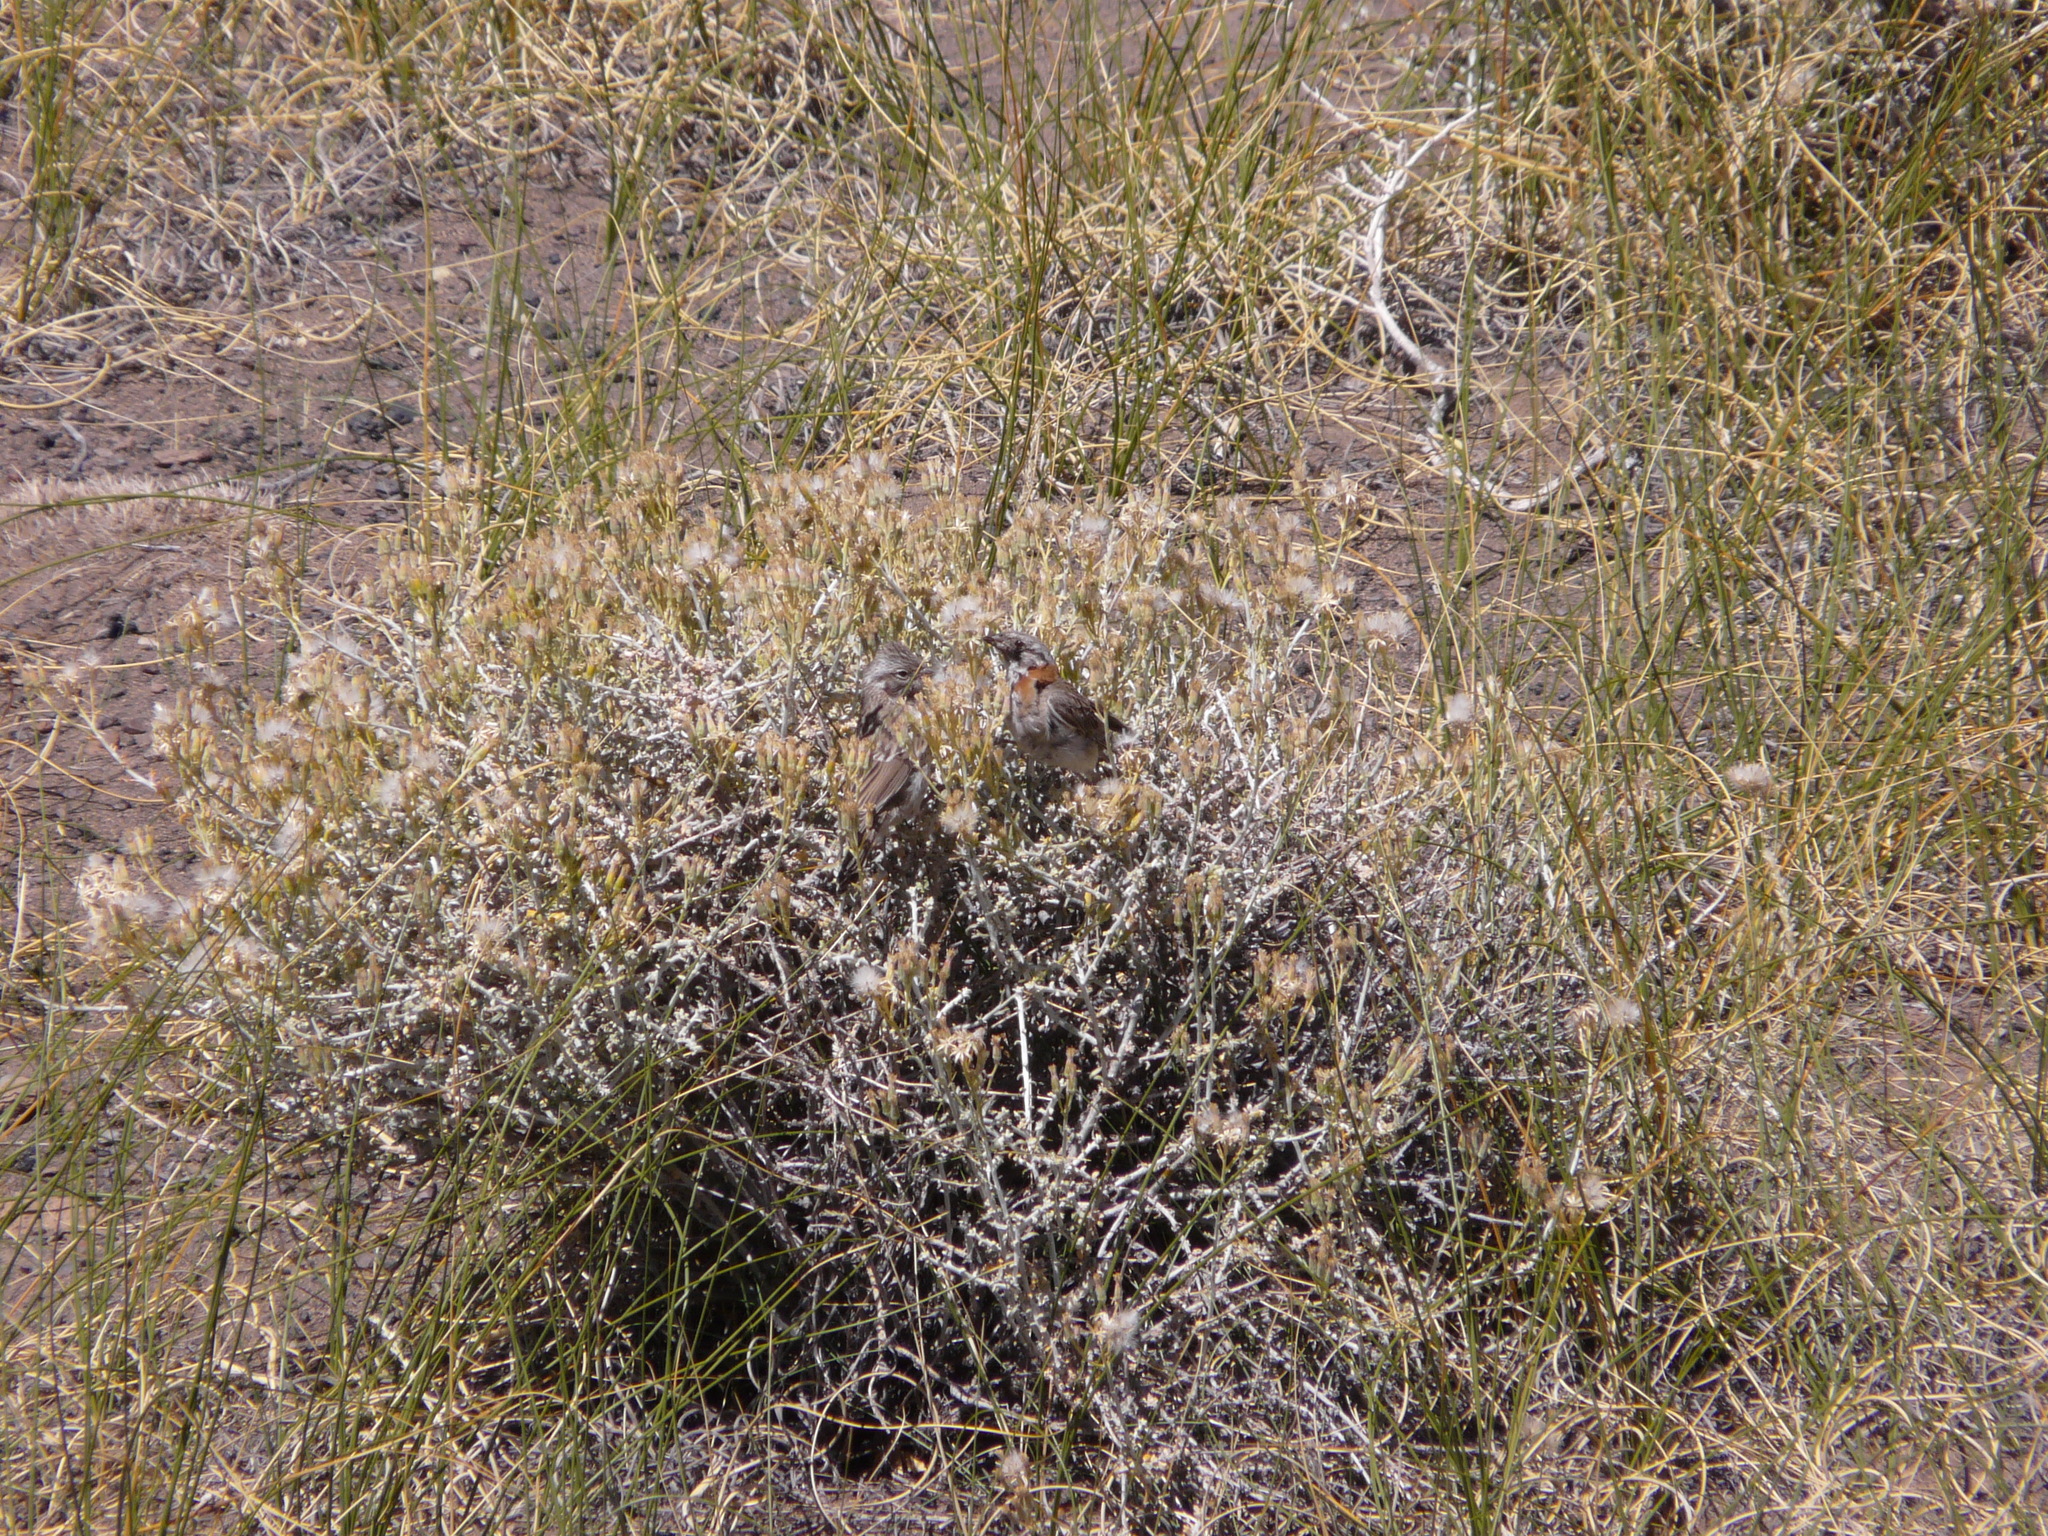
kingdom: Animalia
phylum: Chordata
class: Aves
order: Passeriformes
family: Passerellidae
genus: Zonotrichia
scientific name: Zonotrichia capensis
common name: Rufous-collared sparrow
